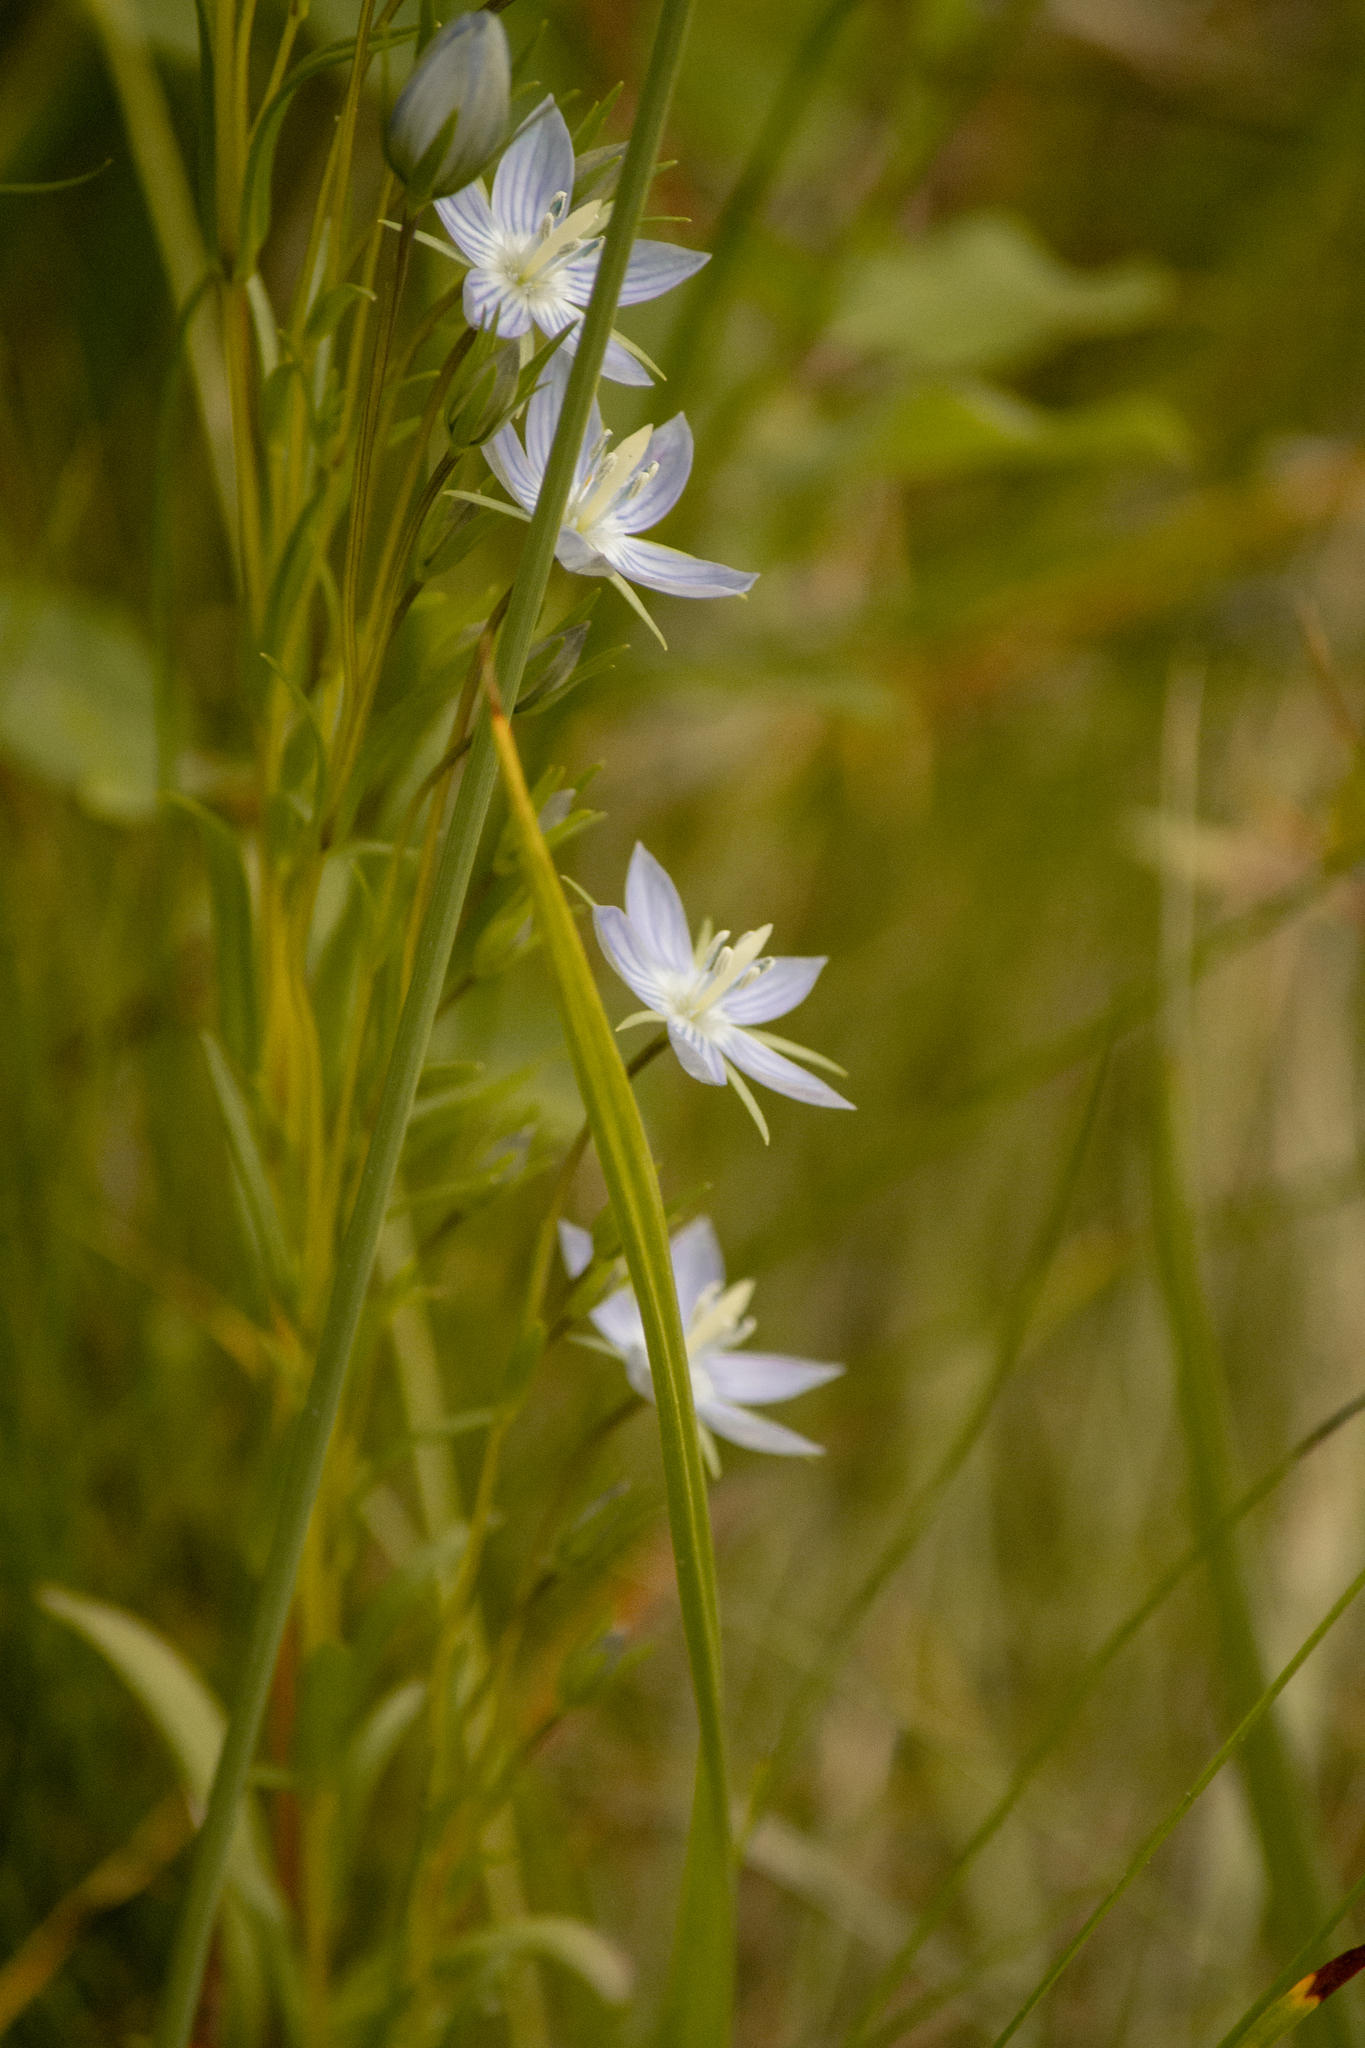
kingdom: Plantae
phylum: Tracheophyta
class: Magnoliopsida
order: Gentianales
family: Gentianaceae
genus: Lomatogonium
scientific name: Lomatogonium rotatum
